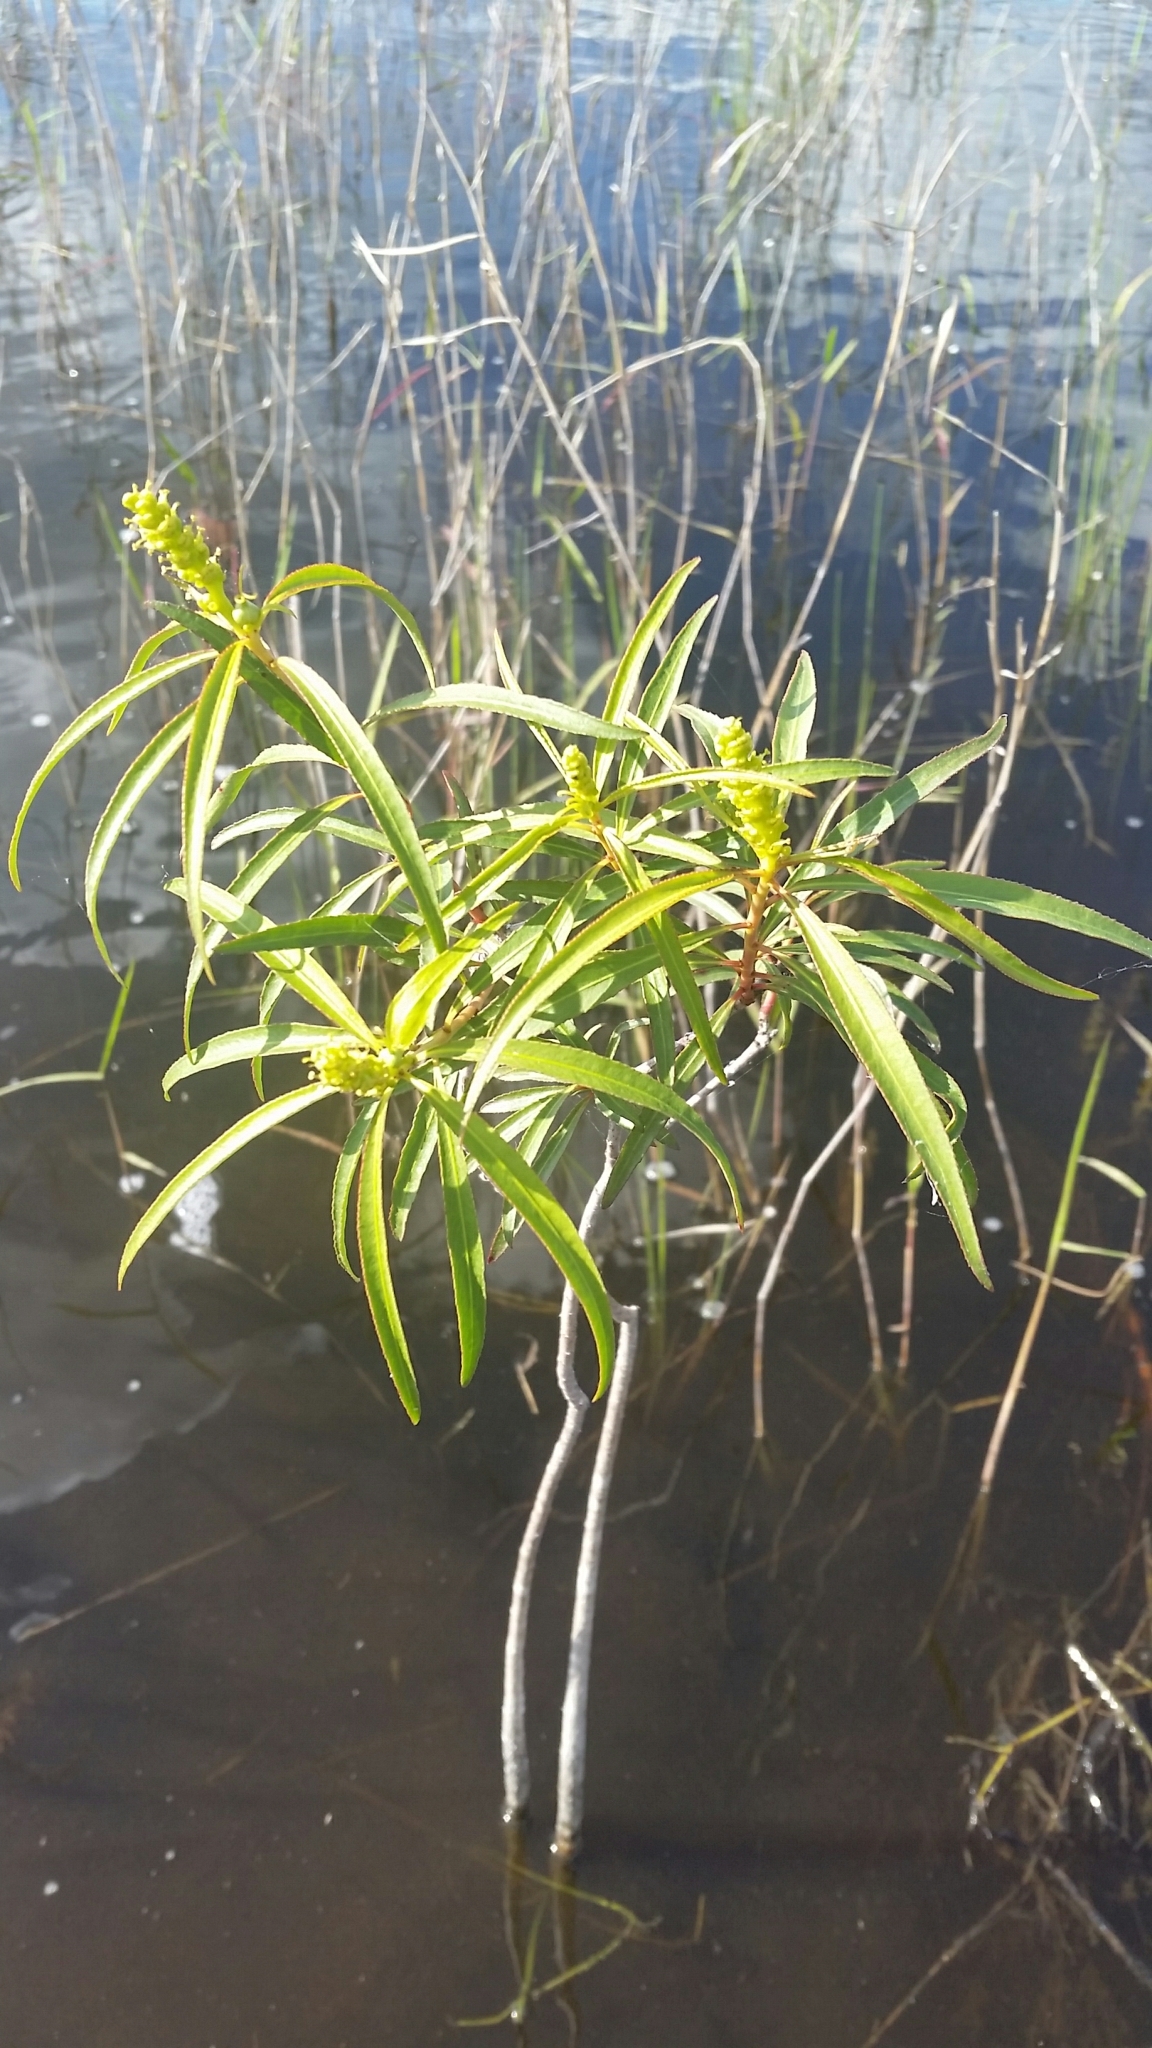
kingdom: Plantae
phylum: Tracheophyta
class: Magnoliopsida
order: Malpighiales
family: Euphorbiaceae
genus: Stillingia
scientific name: Stillingia aquatica
